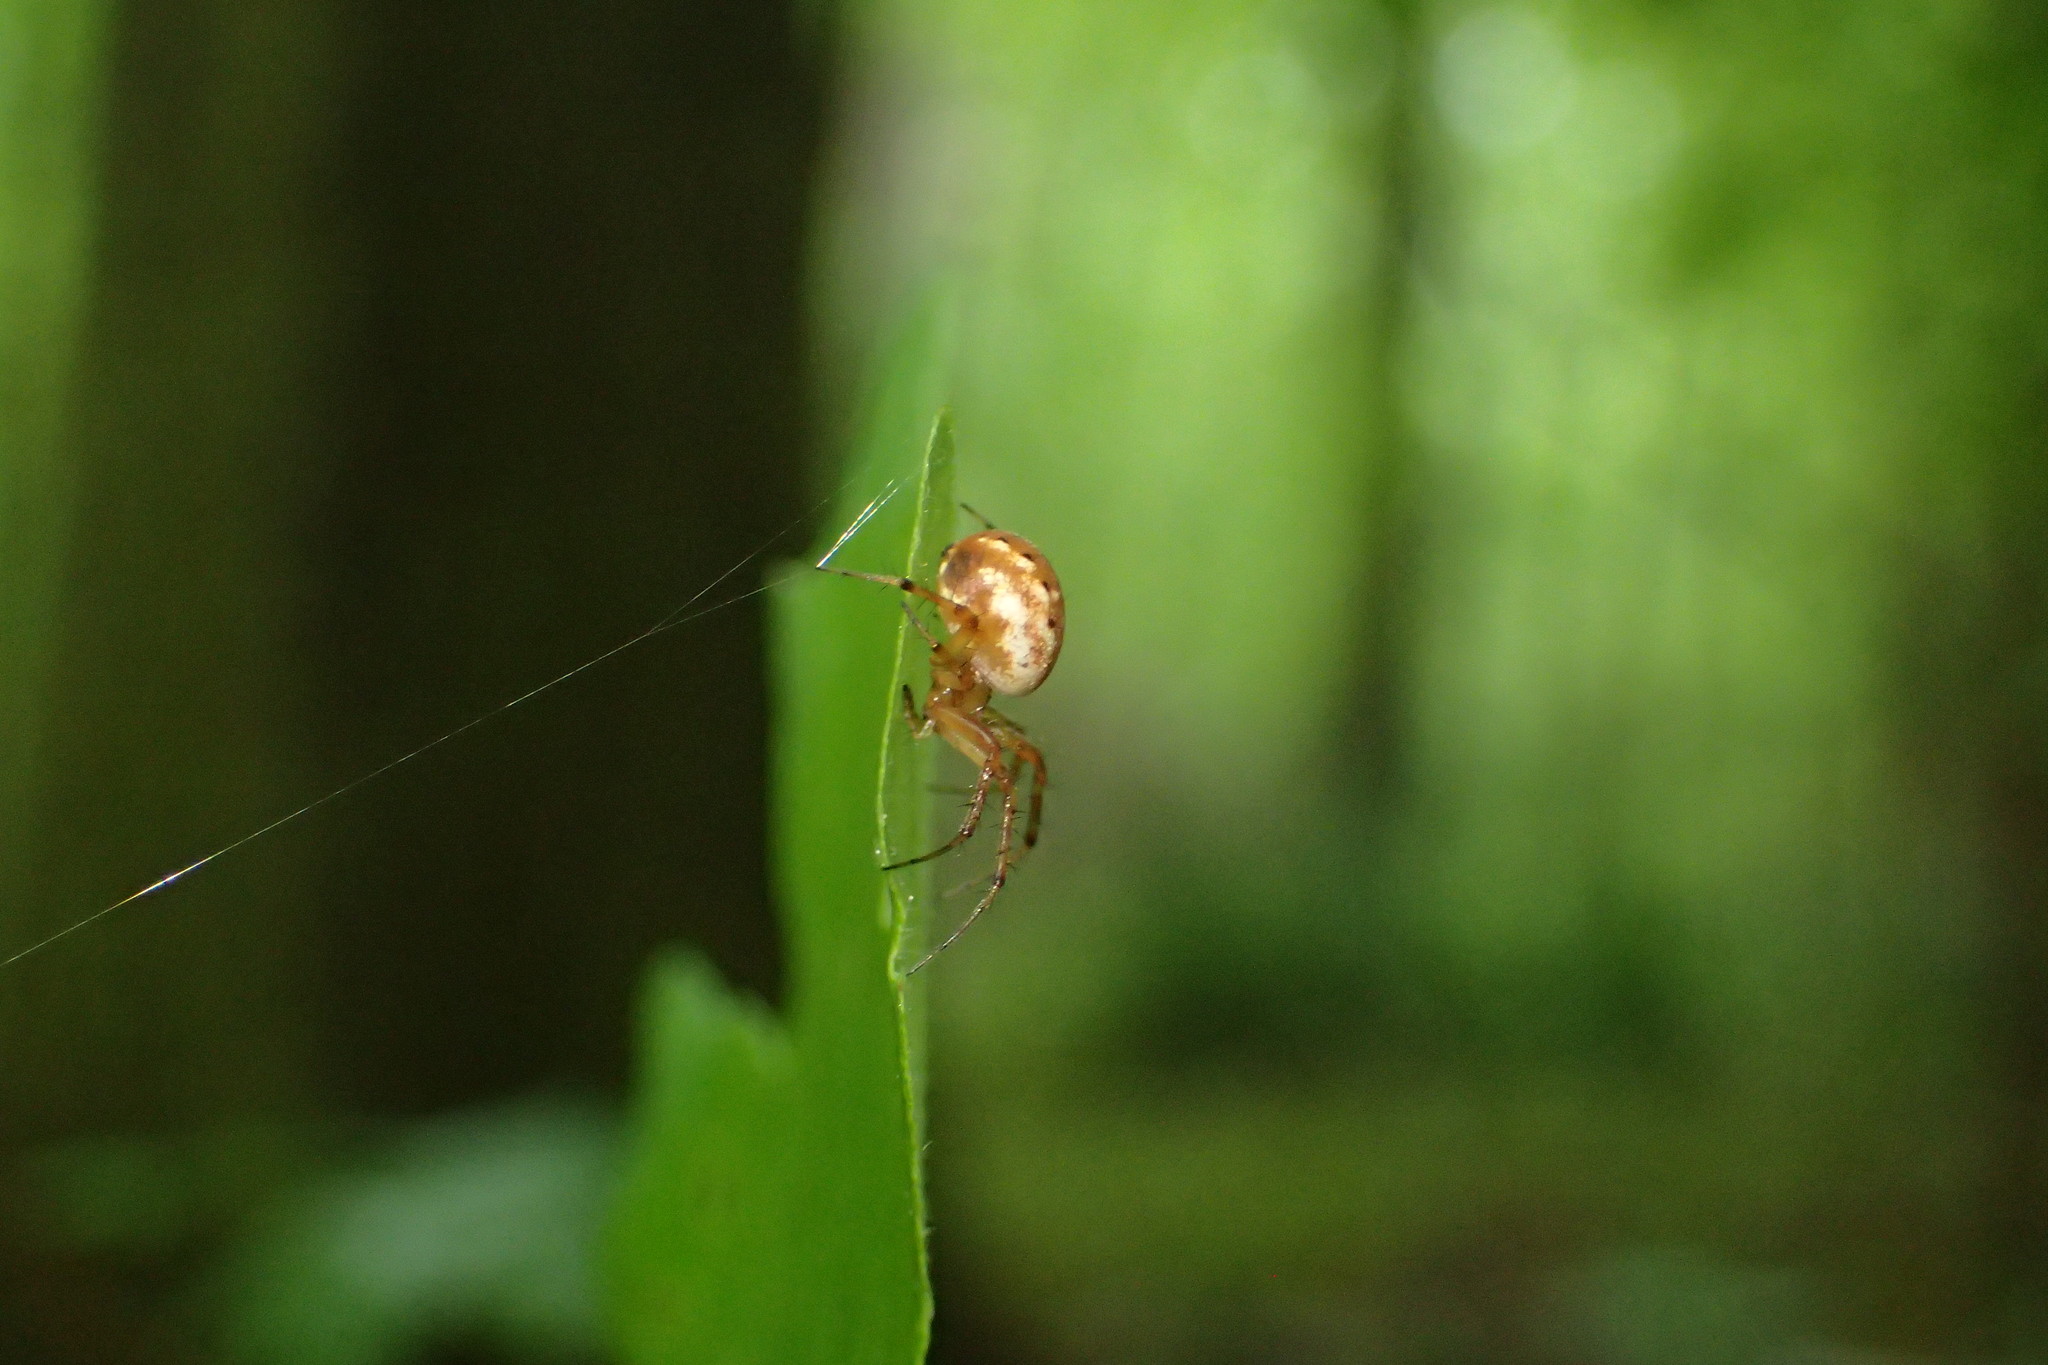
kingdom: Animalia
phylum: Arthropoda
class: Arachnida
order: Araneae
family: Araneidae
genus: Mangora
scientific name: Mangora placida
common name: Tuft-legged orbweaver
